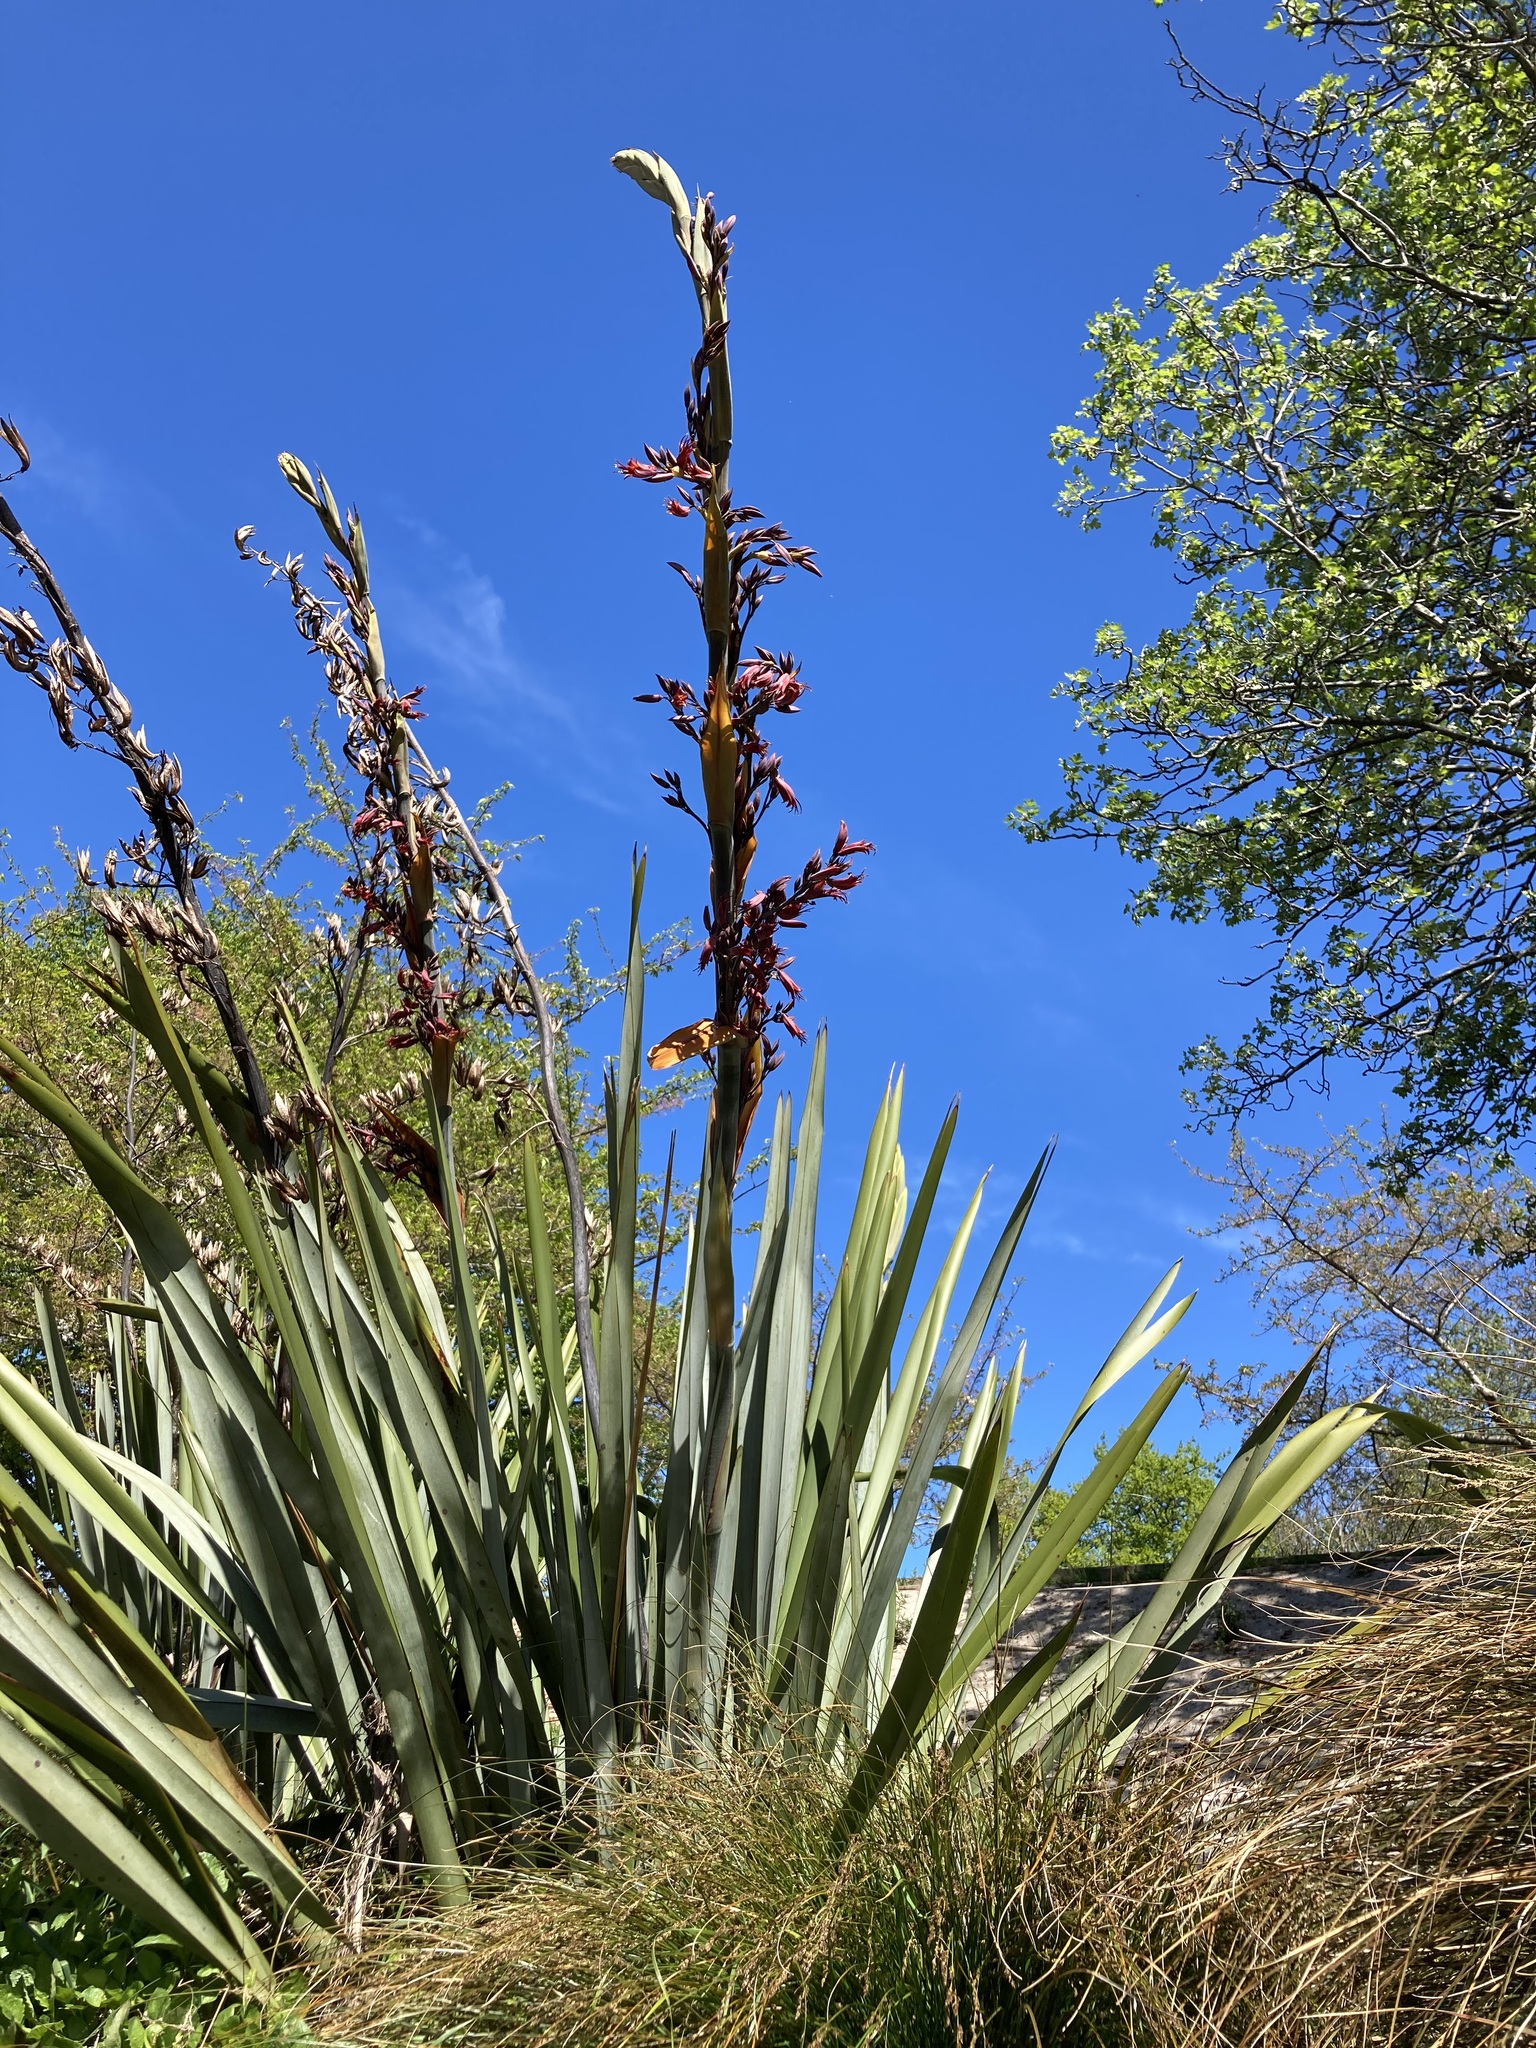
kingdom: Plantae
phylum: Tracheophyta
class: Liliopsida
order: Asparagales
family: Asphodelaceae
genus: Phormium
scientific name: Phormium tenax
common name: New zealand flax
